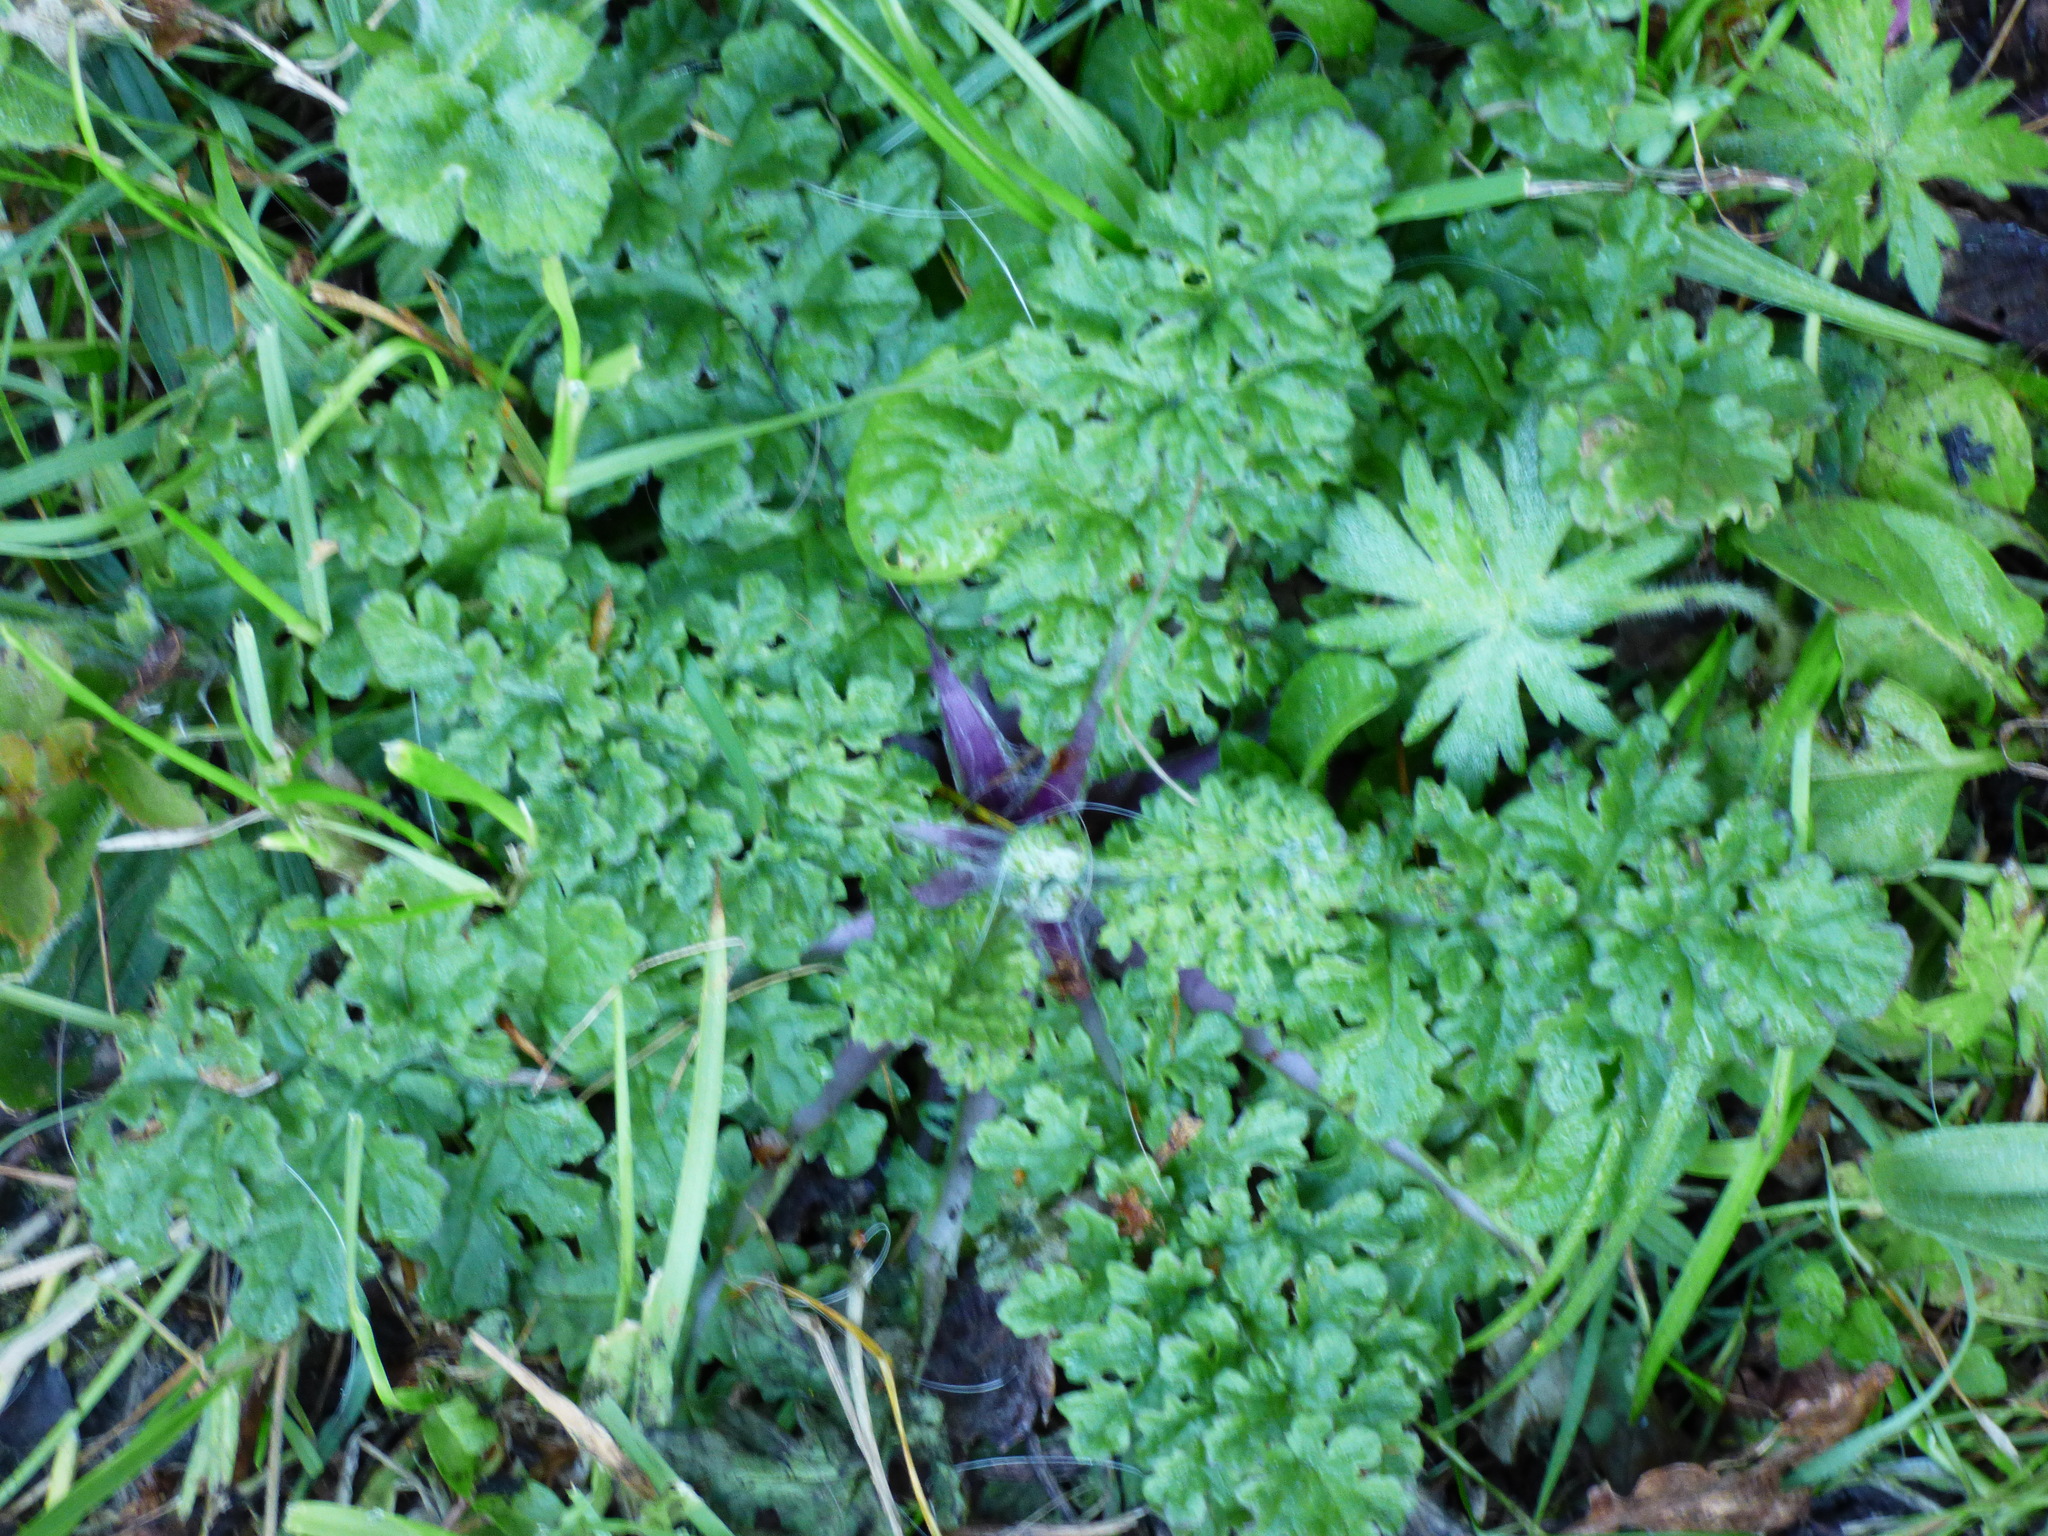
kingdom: Plantae
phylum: Tracheophyta
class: Magnoliopsida
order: Asterales
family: Asteraceae
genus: Jacobaea
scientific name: Jacobaea vulgaris
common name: Stinking willie
